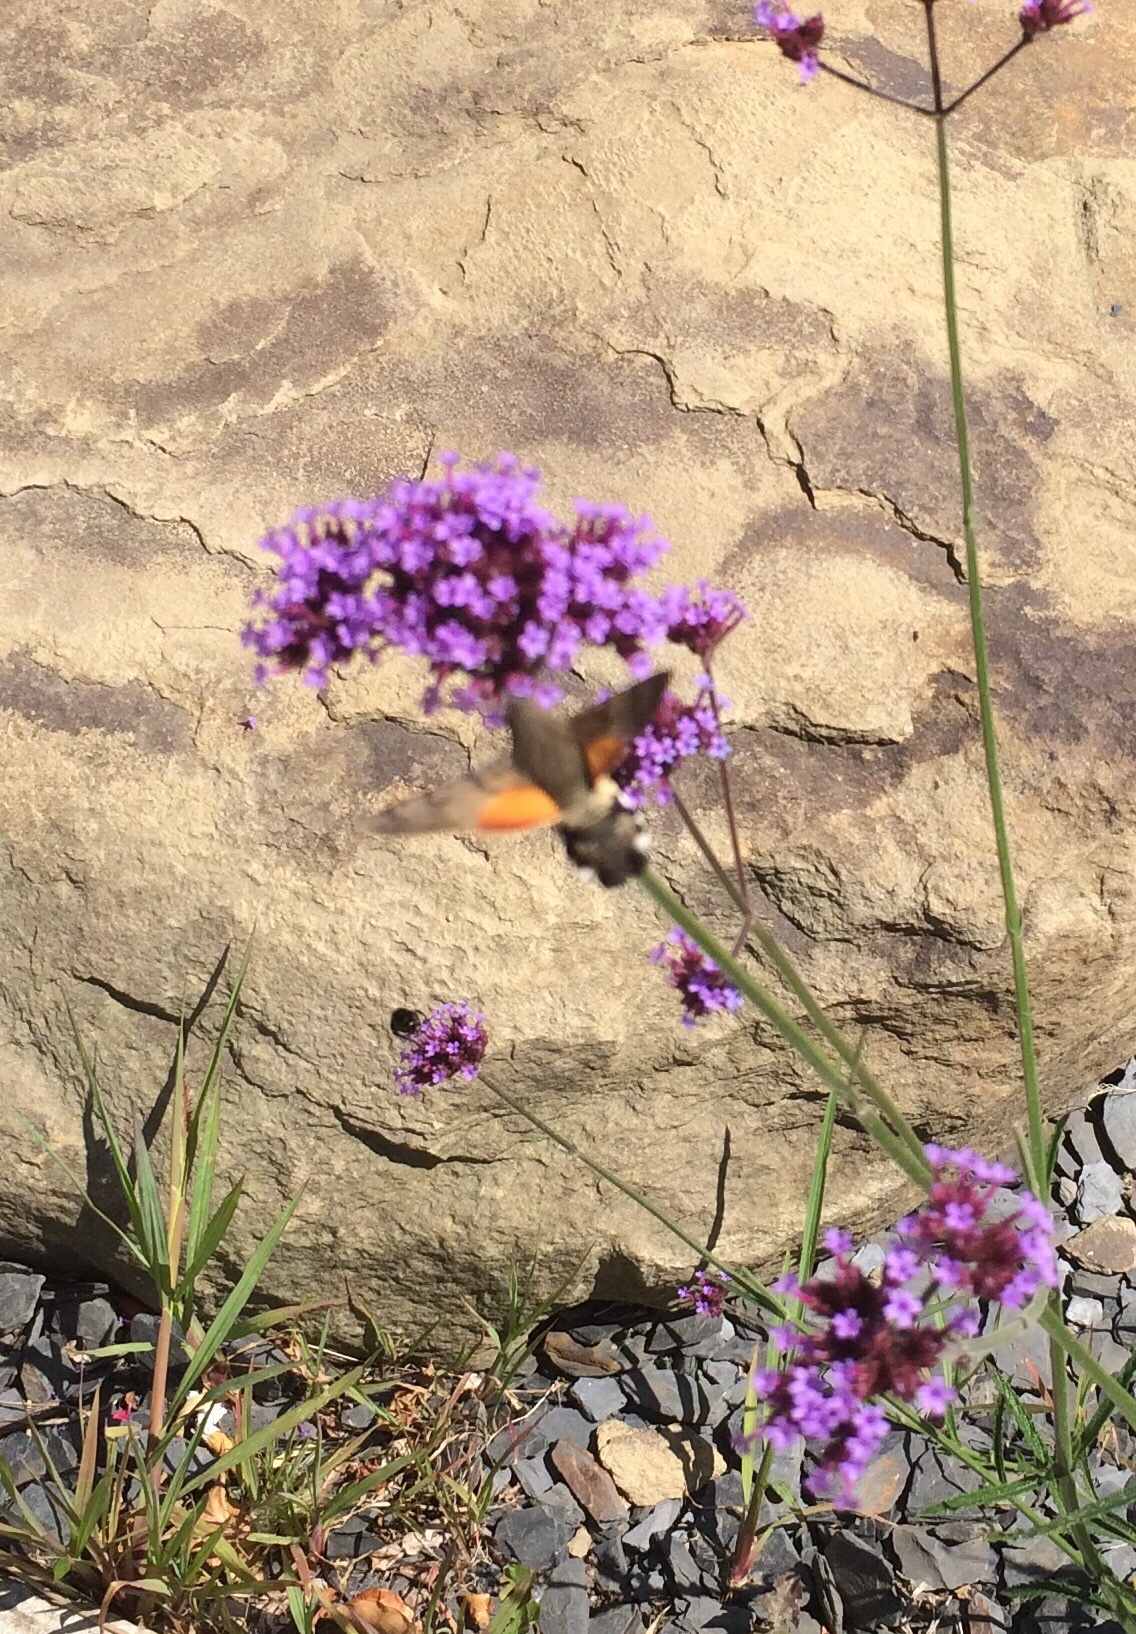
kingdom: Animalia
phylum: Arthropoda
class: Insecta
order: Lepidoptera
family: Sphingidae
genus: Macroglossum
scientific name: Macroglossum stellatarum
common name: Humming-bird hawk-moth
